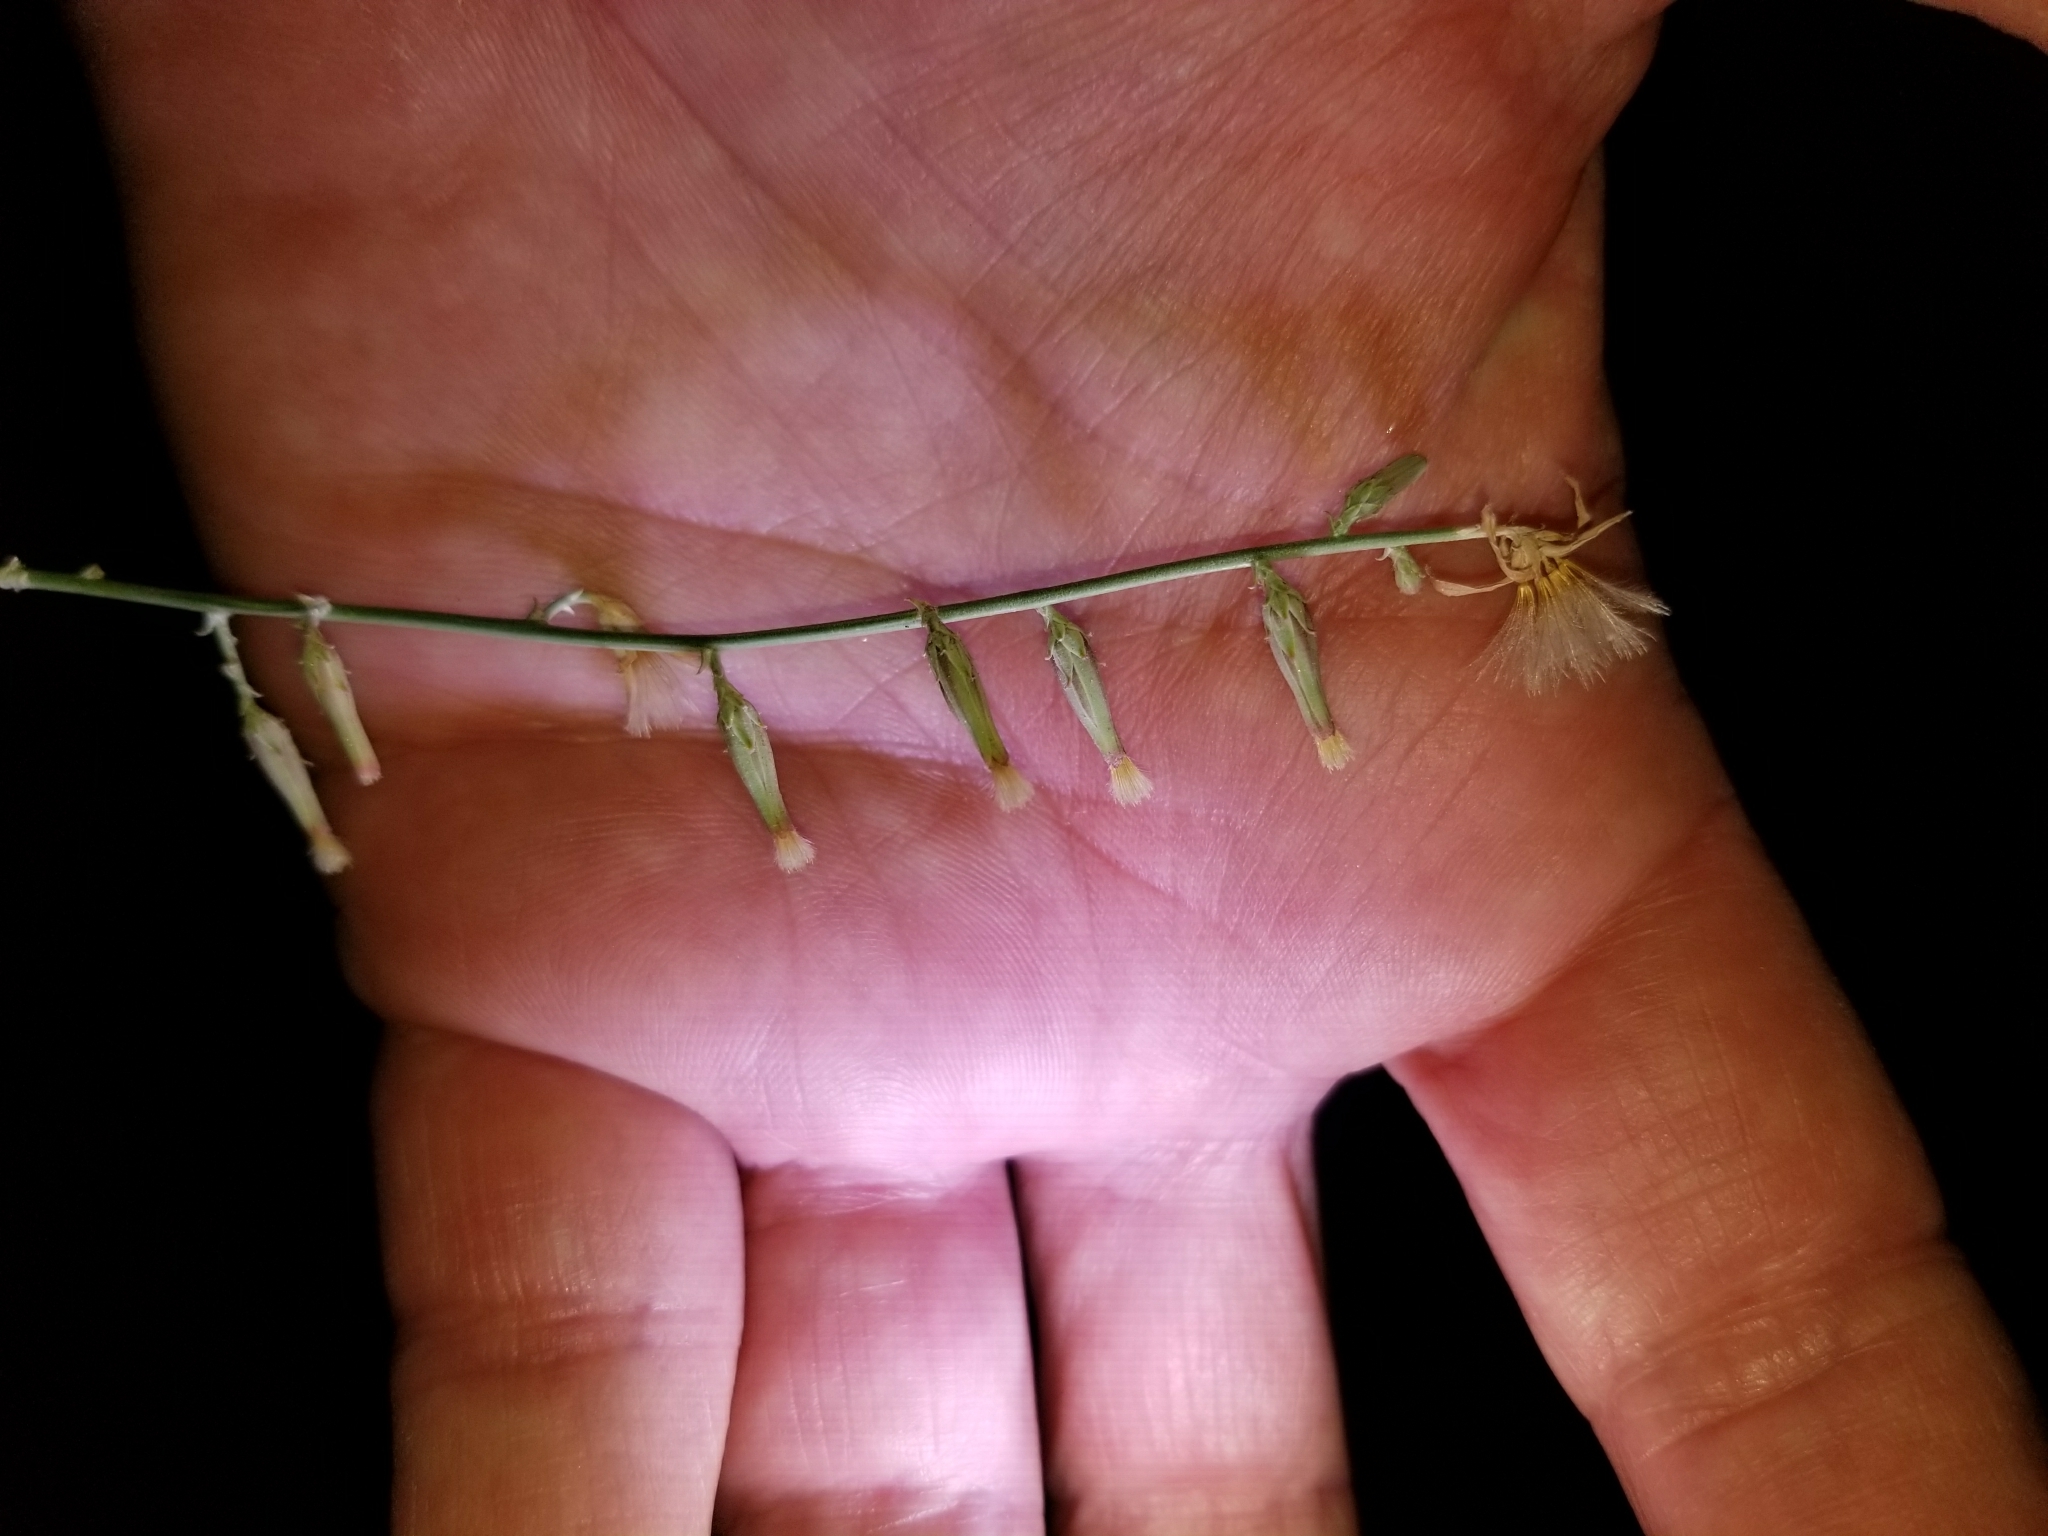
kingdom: Plantae
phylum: Tracheophyta
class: Magnoliopsida
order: Asterales
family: Asteraceae
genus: Stephanomeria
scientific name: Stephanomeria pauciflora
